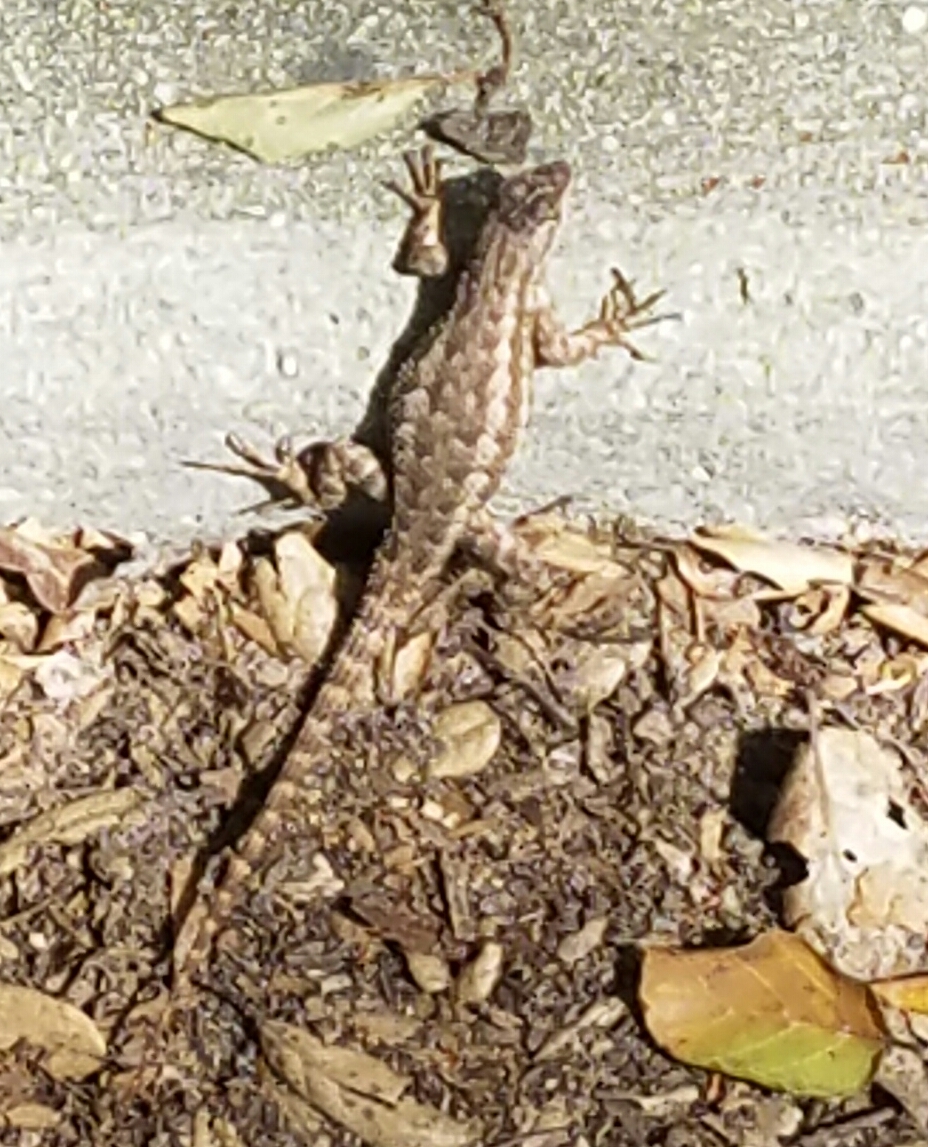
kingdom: Animalia
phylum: Chordata
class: Squamata
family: Phrynosomatidae
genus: Sceloporus
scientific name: Sceloporus occidentalis
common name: Western fence lizard
